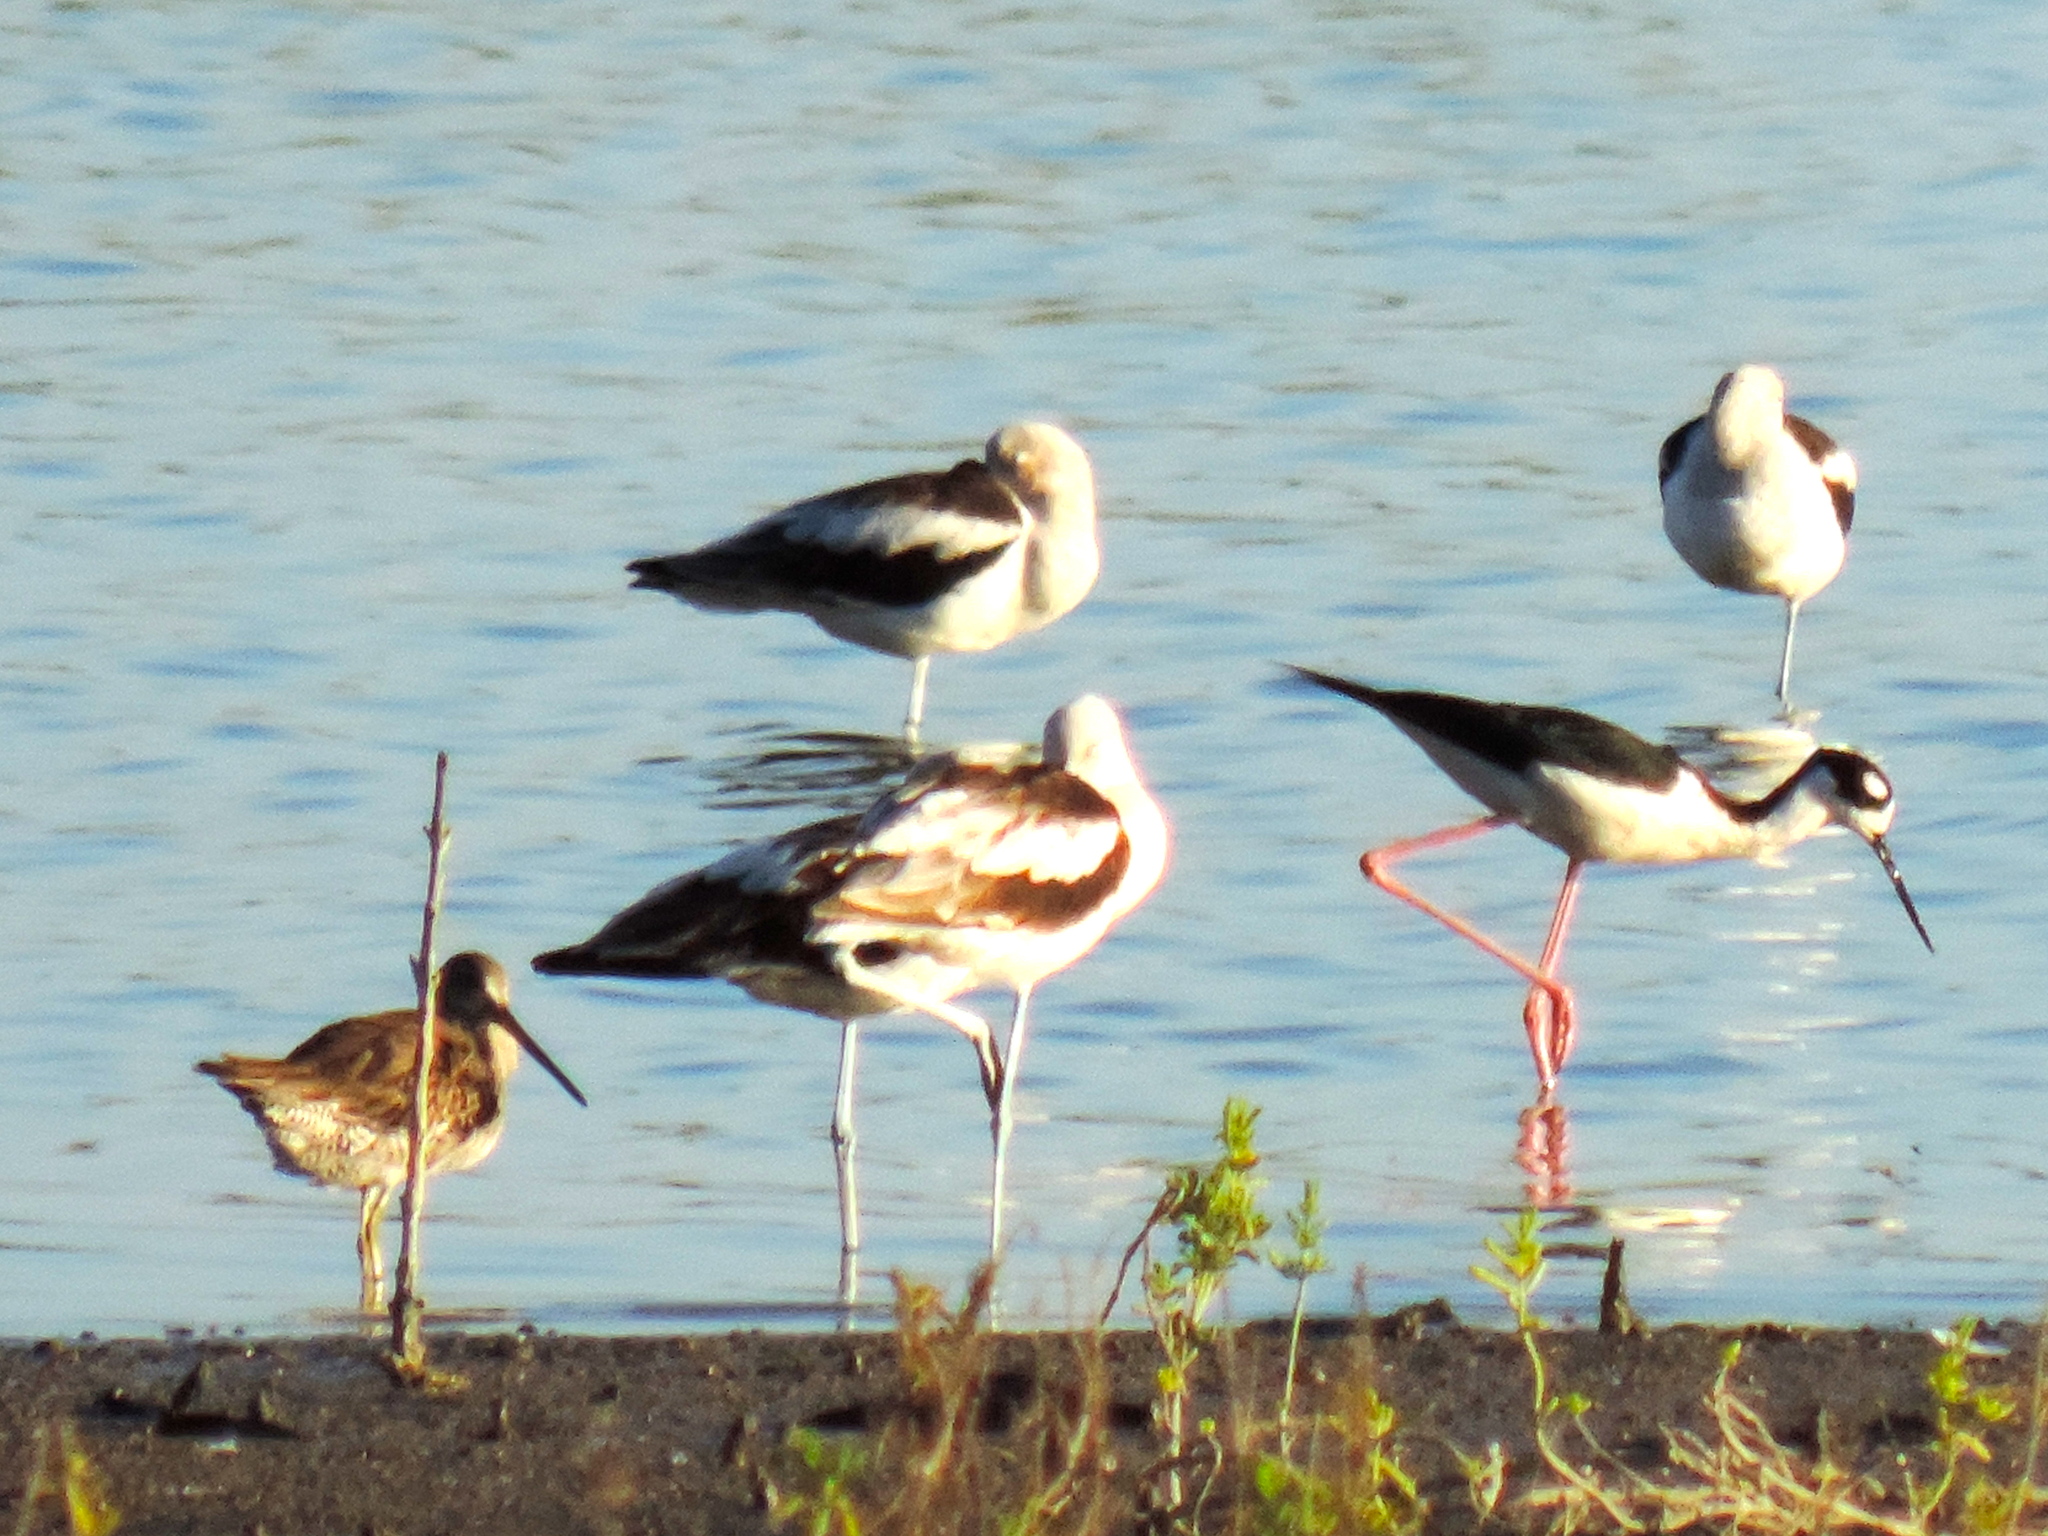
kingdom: Animalia
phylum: Chordata
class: Aves
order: Charadriiformes
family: Recurvirostridae
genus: Recurvirostra
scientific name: Recurvirostra americana
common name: American avocet
